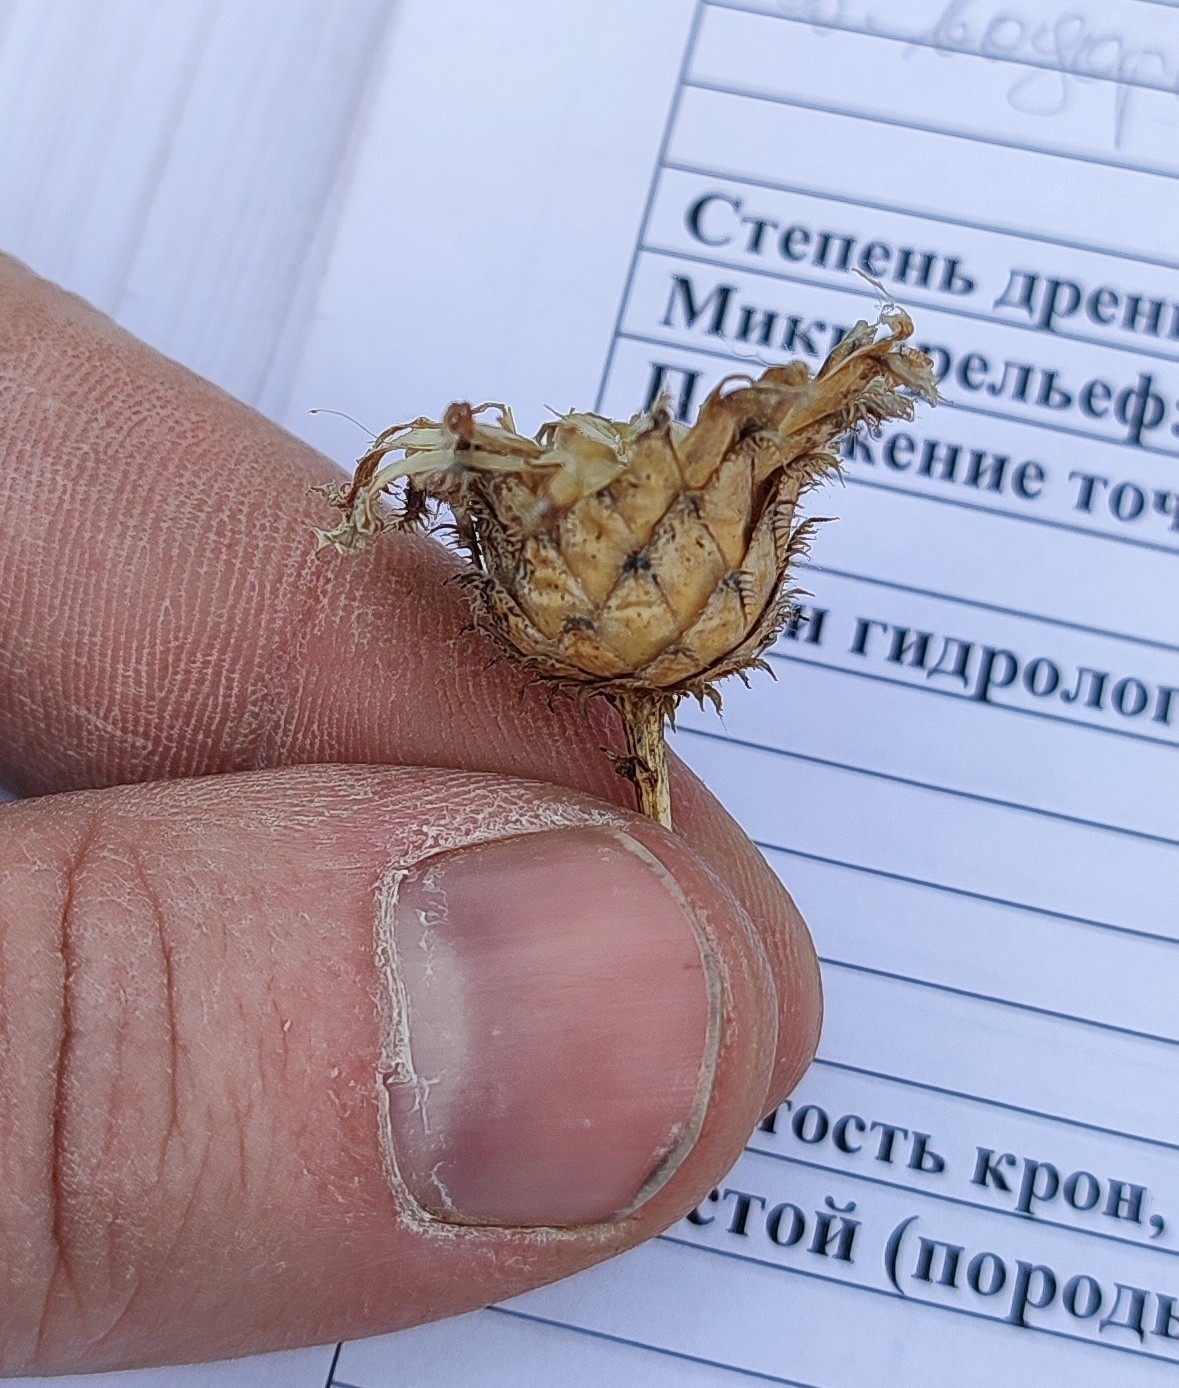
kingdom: Plantae
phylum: Tracheophyta
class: Magnoliopsida
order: Asterales
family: Asteraceae
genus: Centaurea
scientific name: Centaurea scabiosa
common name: Greater knapweed
